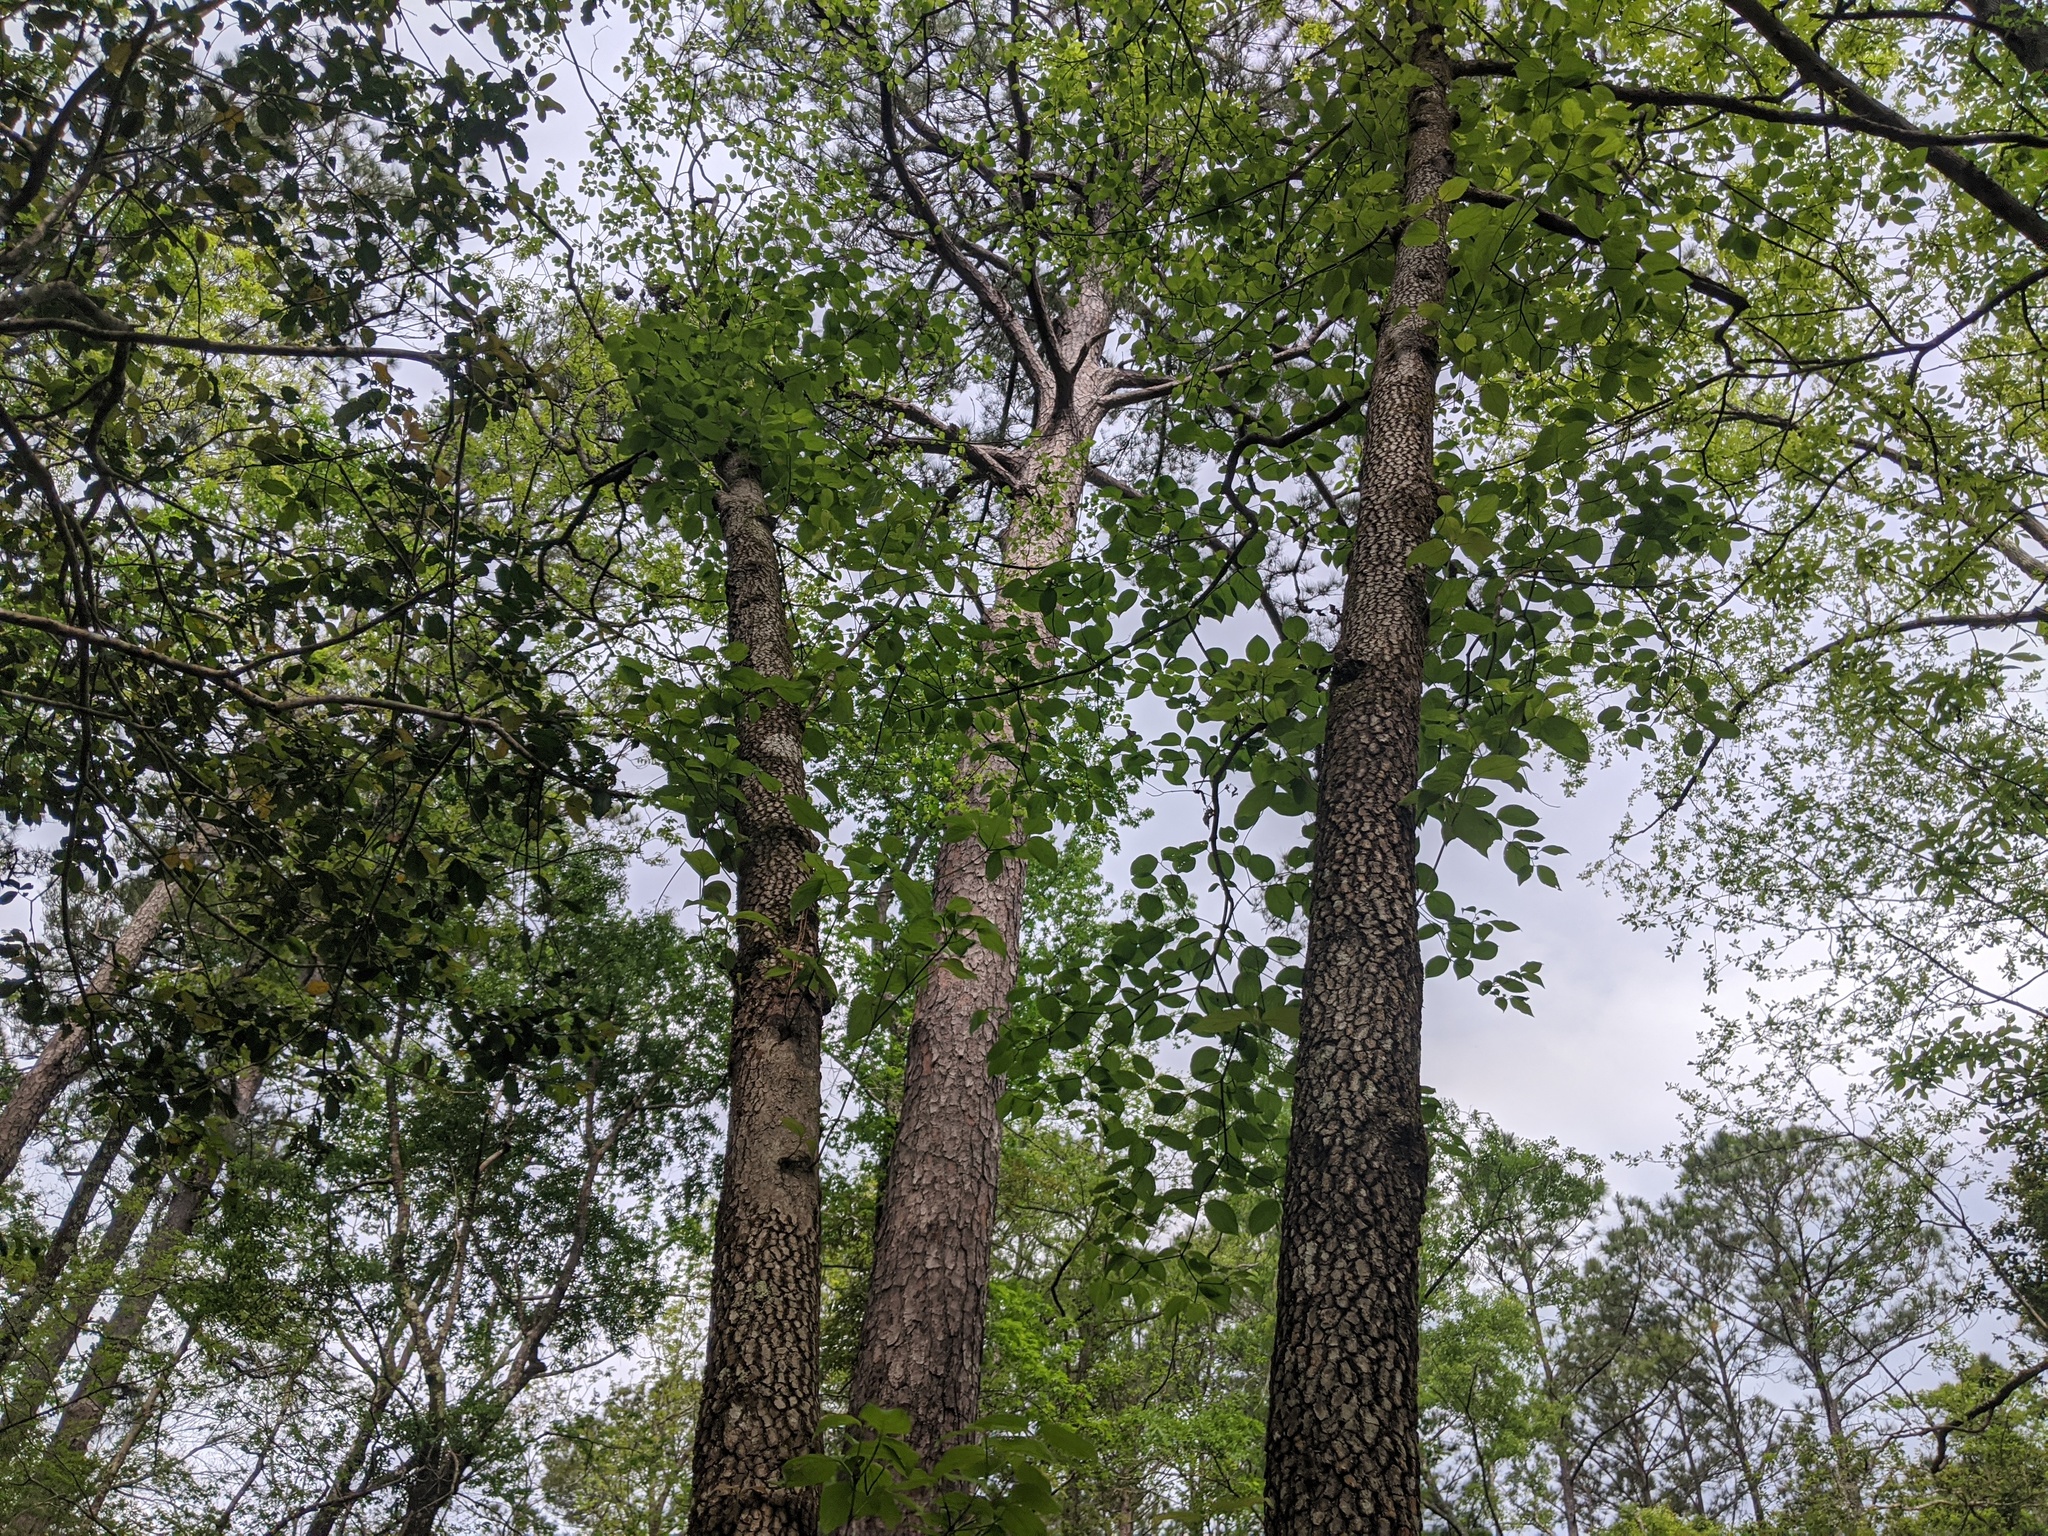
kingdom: Plantae
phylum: Tracheophyta
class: Magnoliopsida
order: Cornales
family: Cornaceae
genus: Cornus
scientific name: Cornus florida
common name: Flowering dogwood
